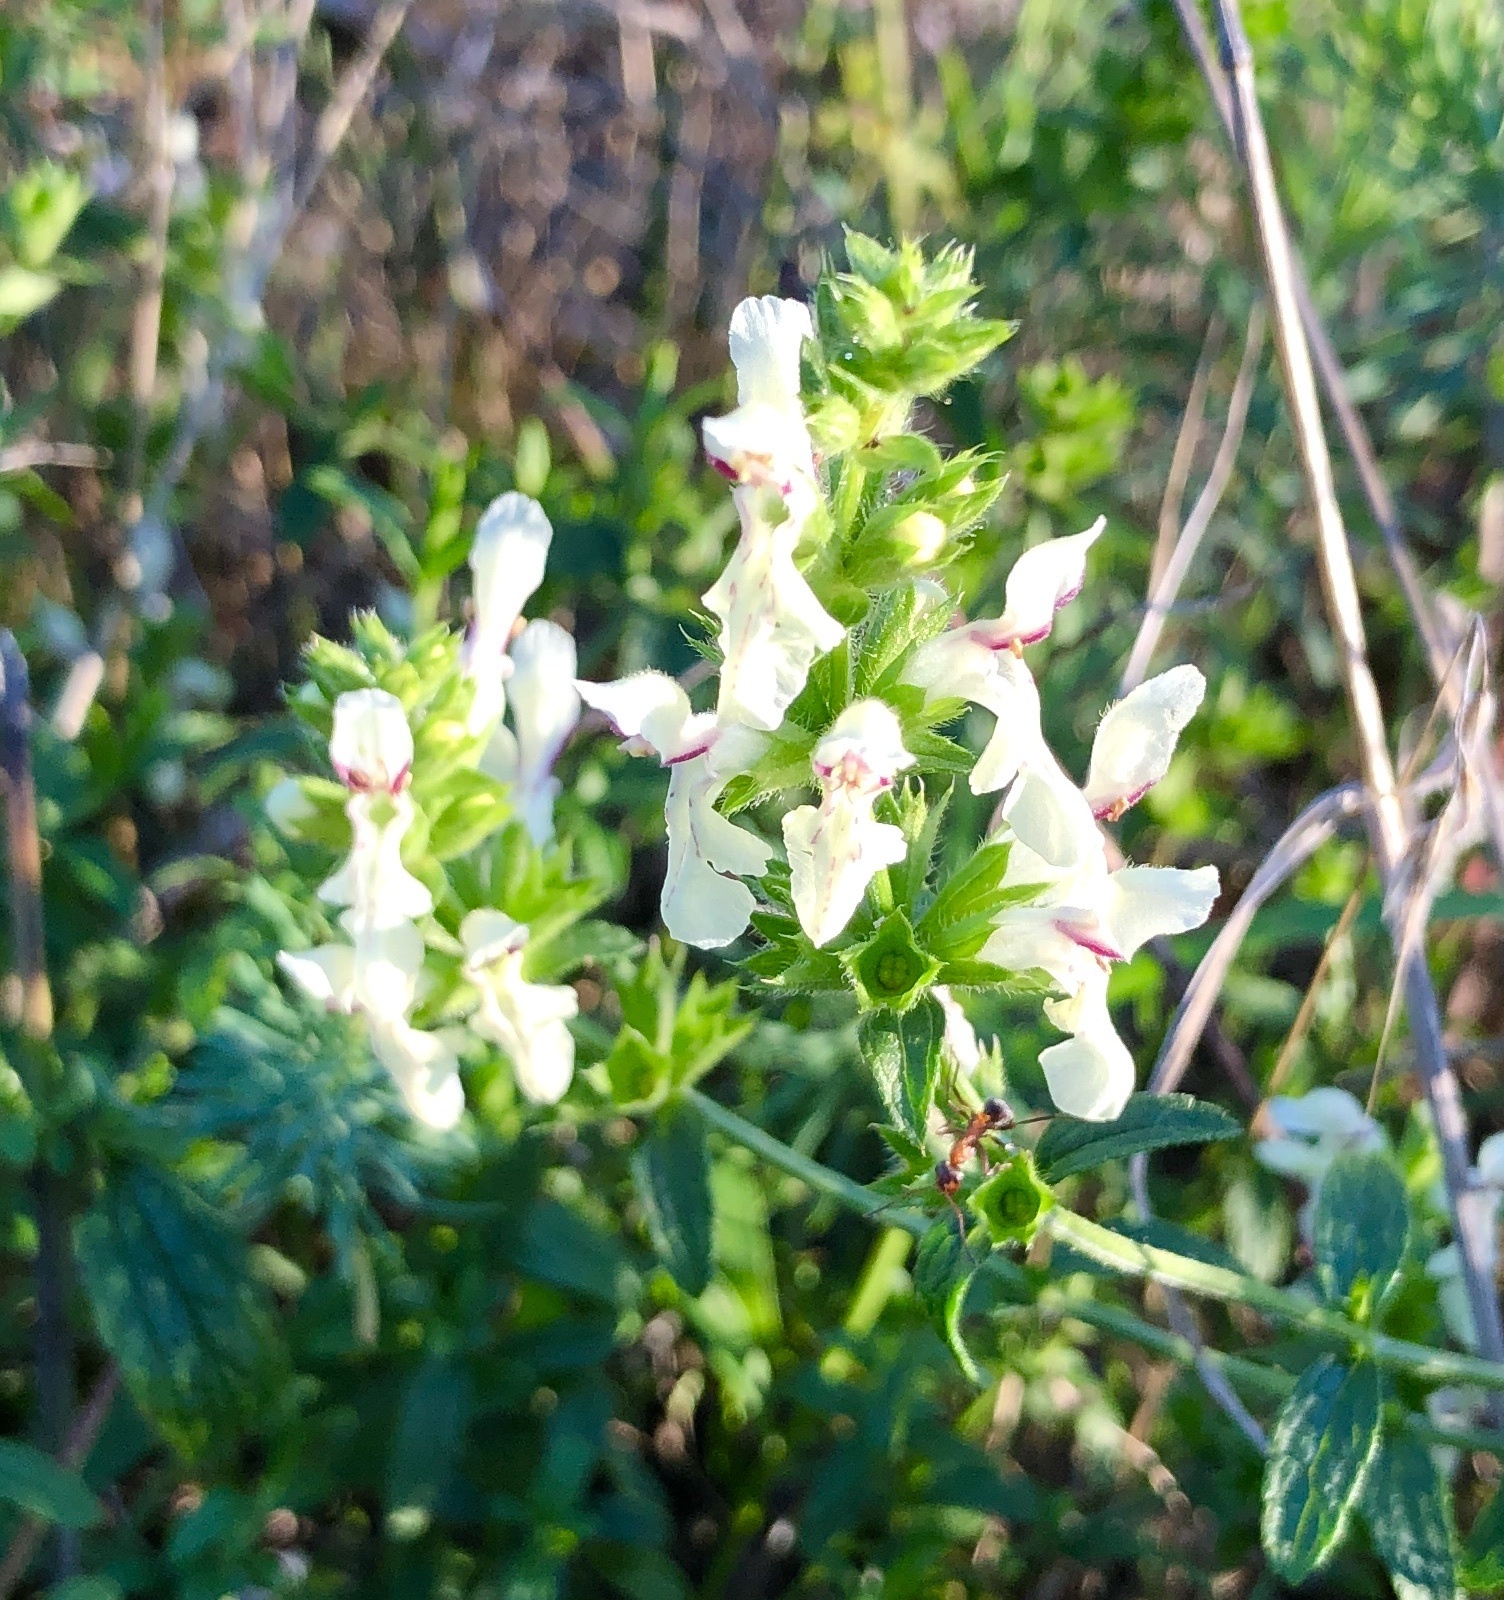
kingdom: Plantae
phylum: Tracheophyta
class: Magnoliopsida
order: Lamiales
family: Lamiaceae
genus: Stachys
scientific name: Stachys recta
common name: Perennial yellow-woundwort
